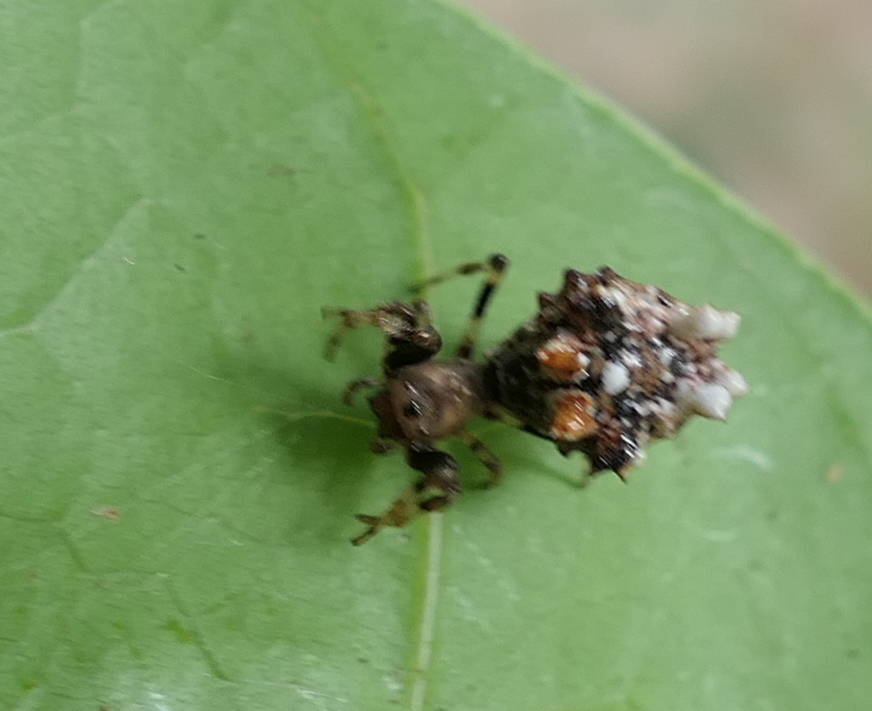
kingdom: Animalia
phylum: Arthropoda
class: Arachnida
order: Araneae
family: Araneidae
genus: Micrathena
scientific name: Micrathena horrida
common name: Orb weavers
